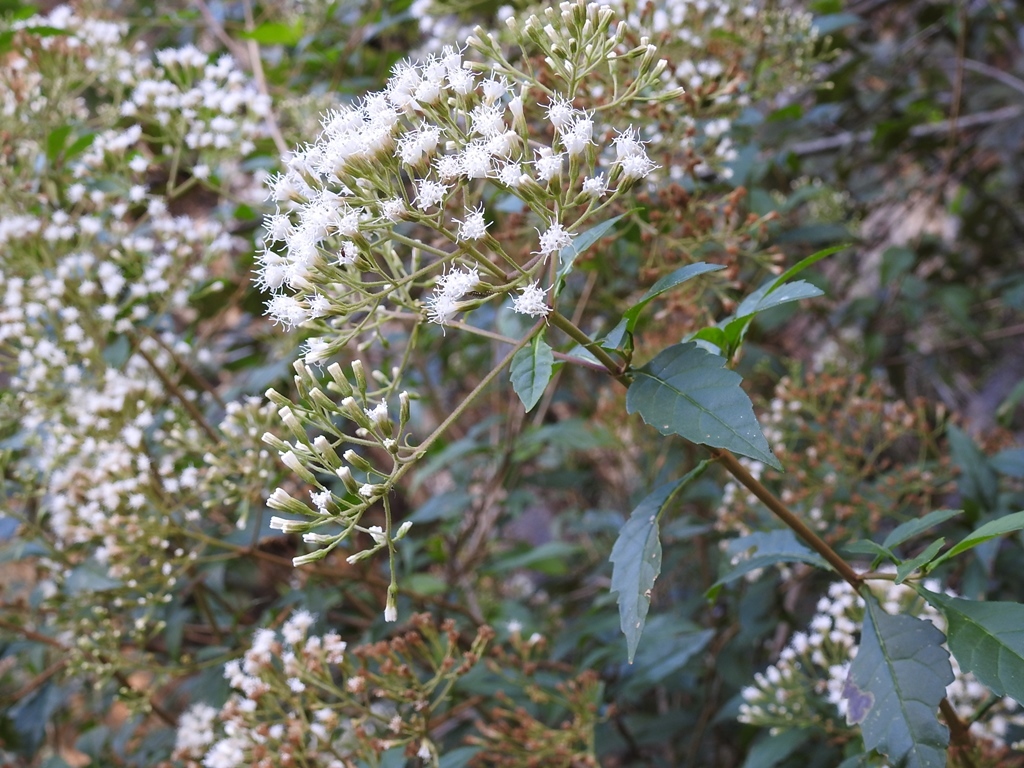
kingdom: Plantae
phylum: Tracheophyta
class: Magnoliopsida
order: Asterales
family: Asteraceae
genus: Ageratina
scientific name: Ageratina ligustrina
